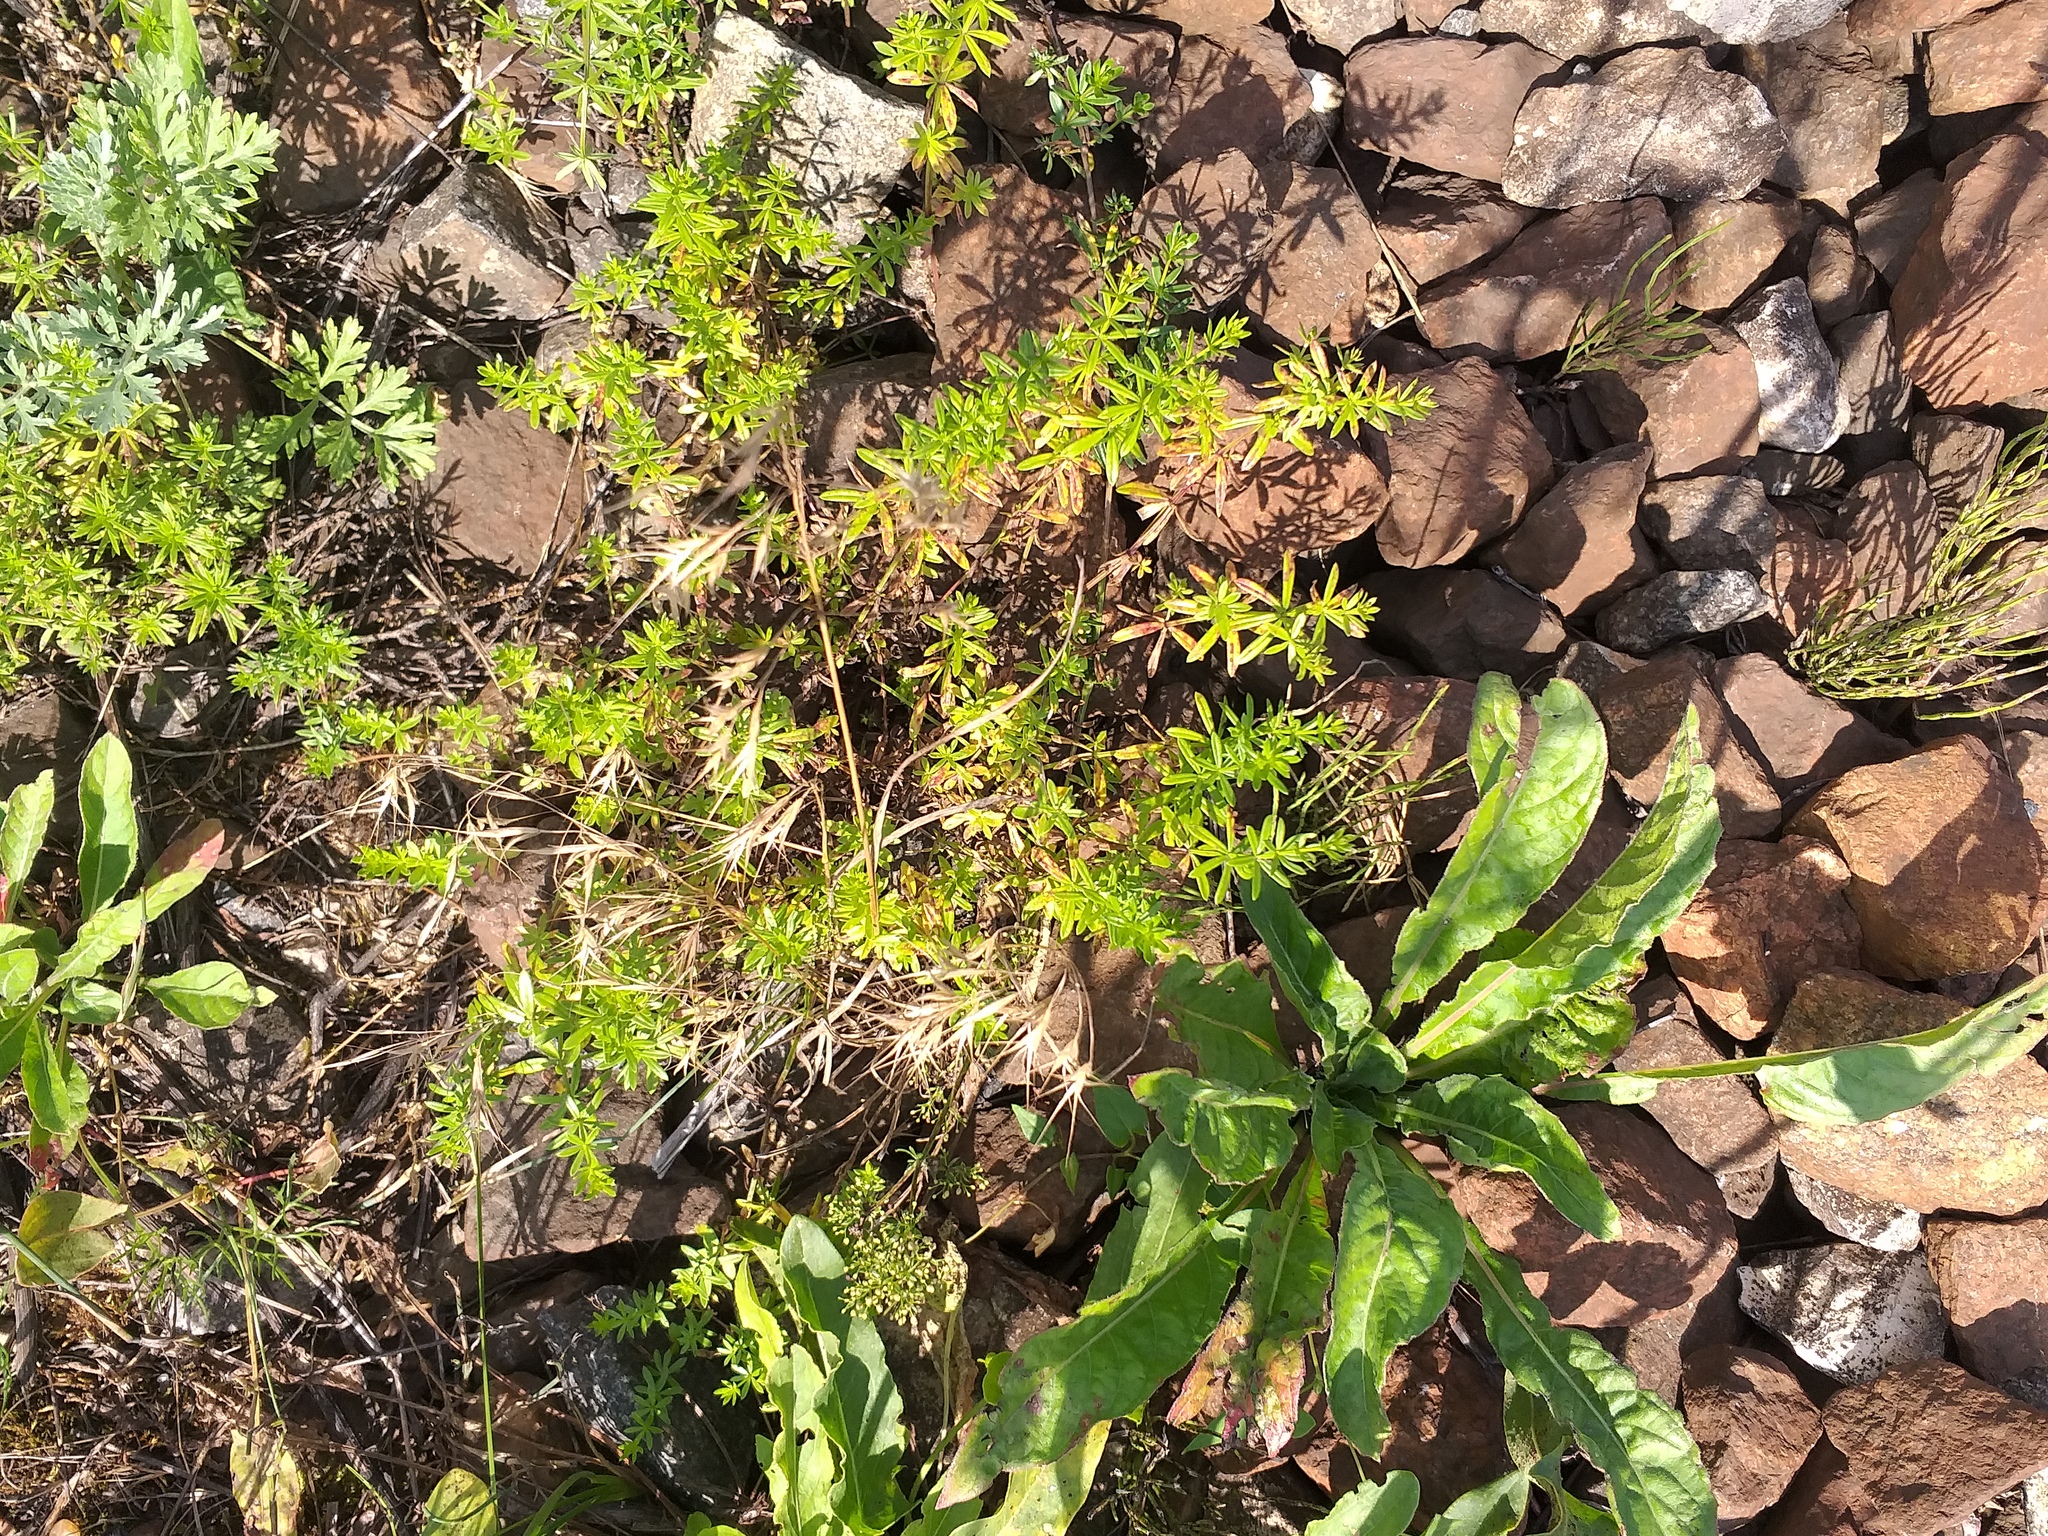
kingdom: Plantae
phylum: Tracheophyta
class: Magnoliopsida
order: Gentianales
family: Rubiaceae
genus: Galium
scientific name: Galium mollugo
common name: Hedge bedstraw
